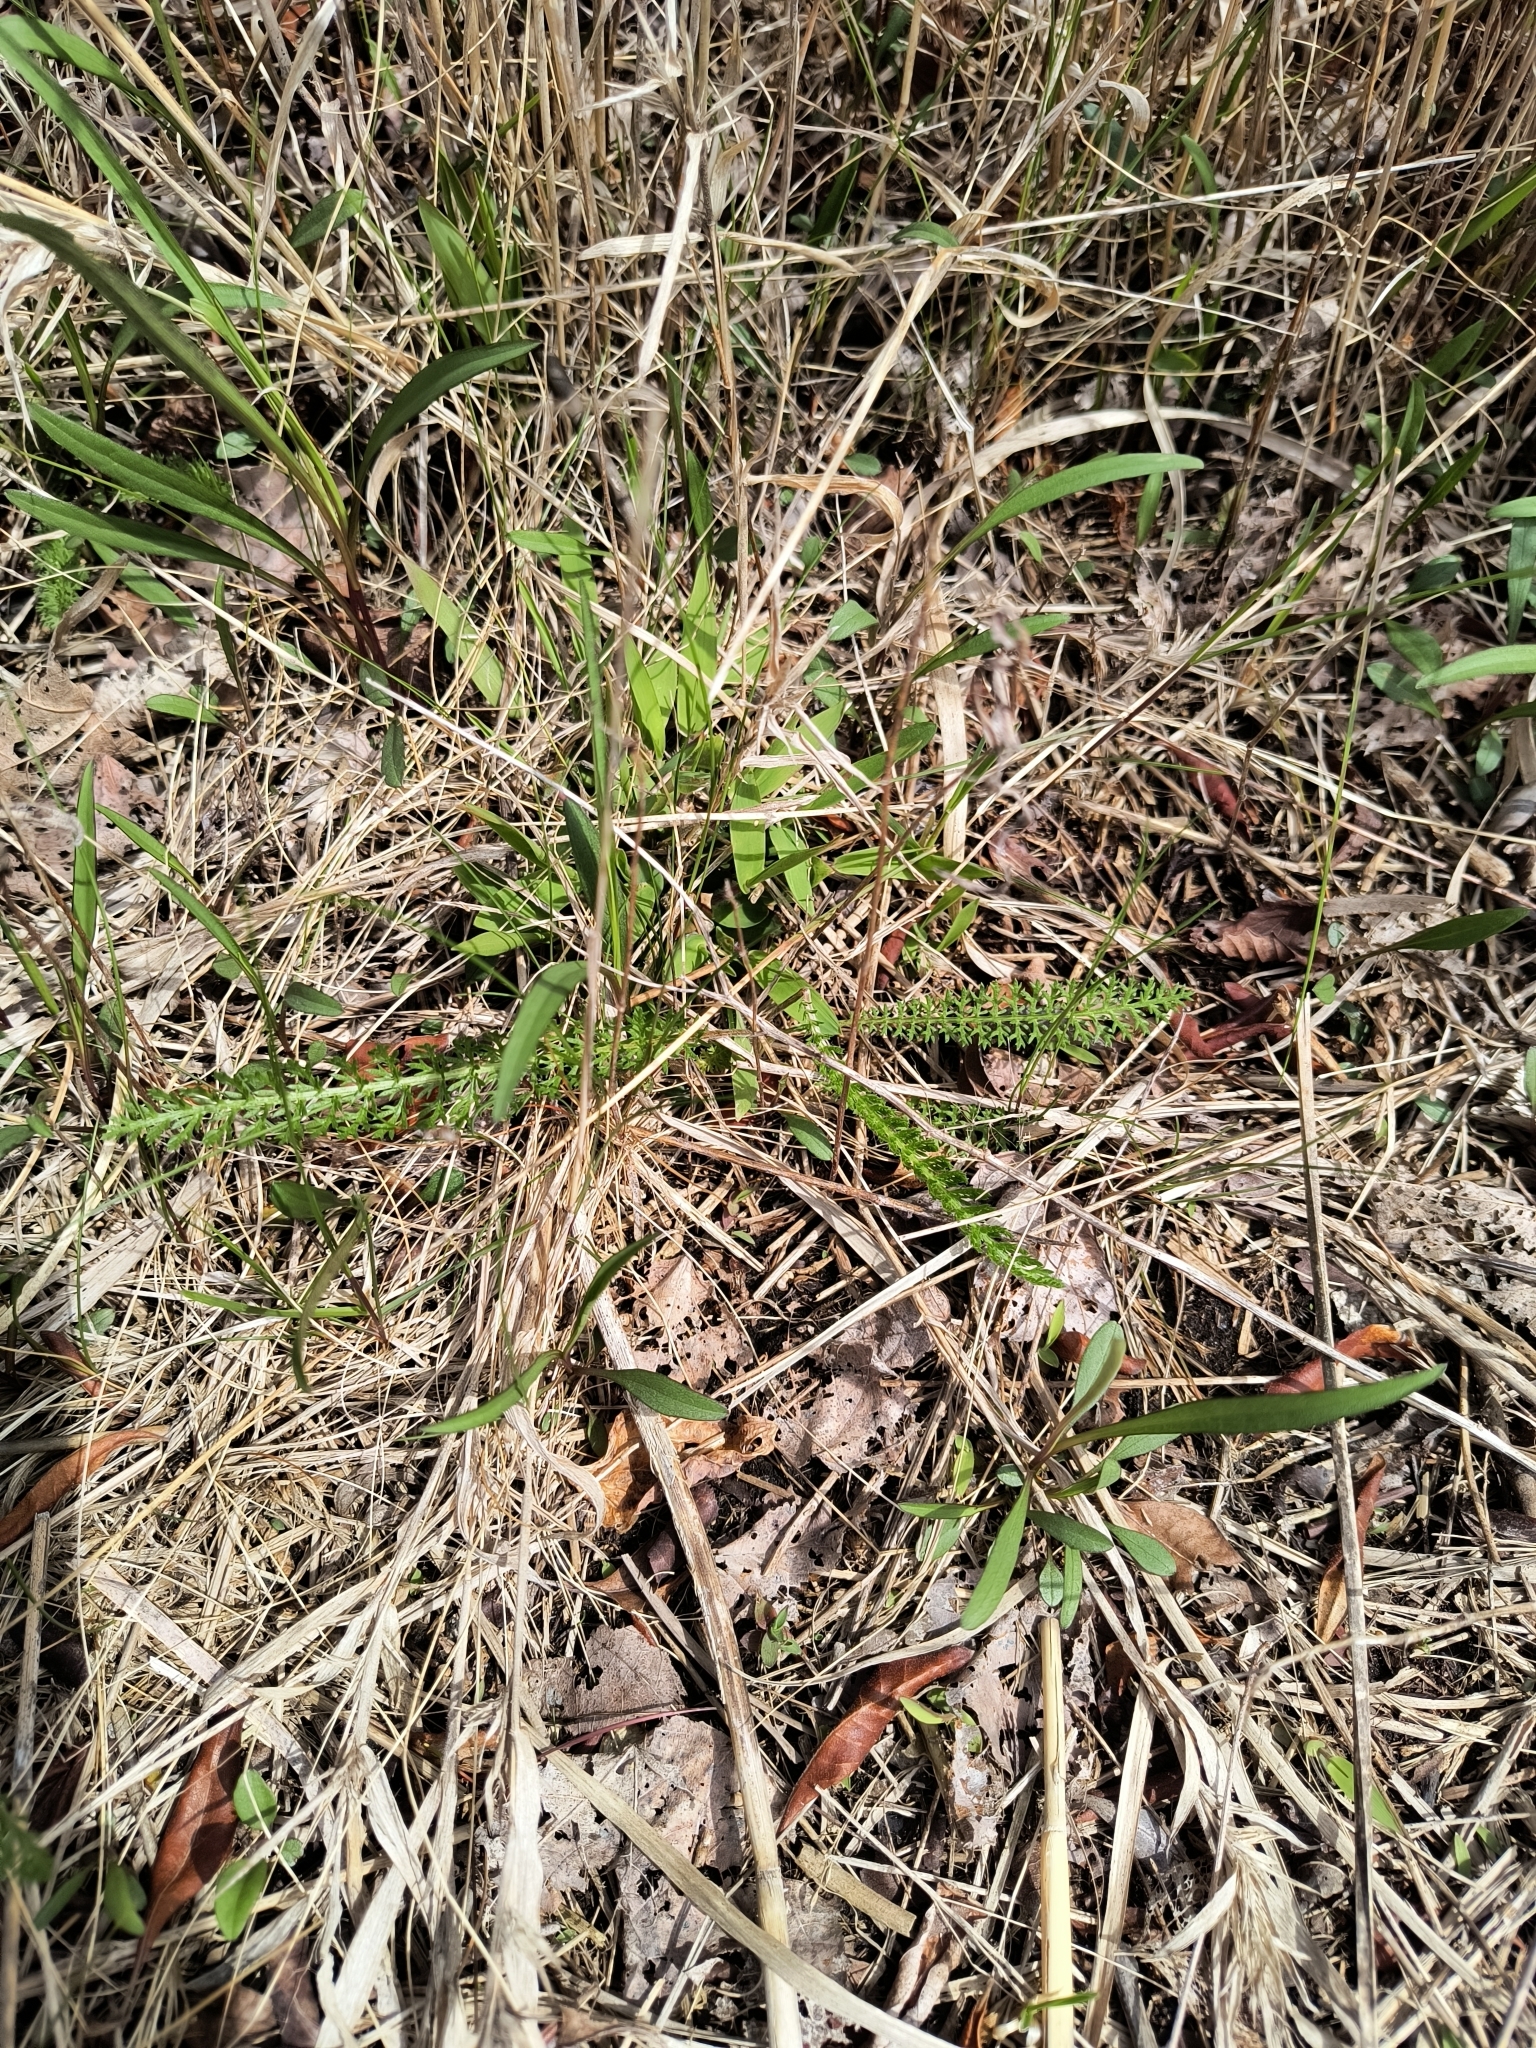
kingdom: Plantae
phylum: Tracheophyta
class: Magnoliopsida
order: Asterales
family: Asteraceae
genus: Achillea
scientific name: Achillea millefolium
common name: Yarrow
